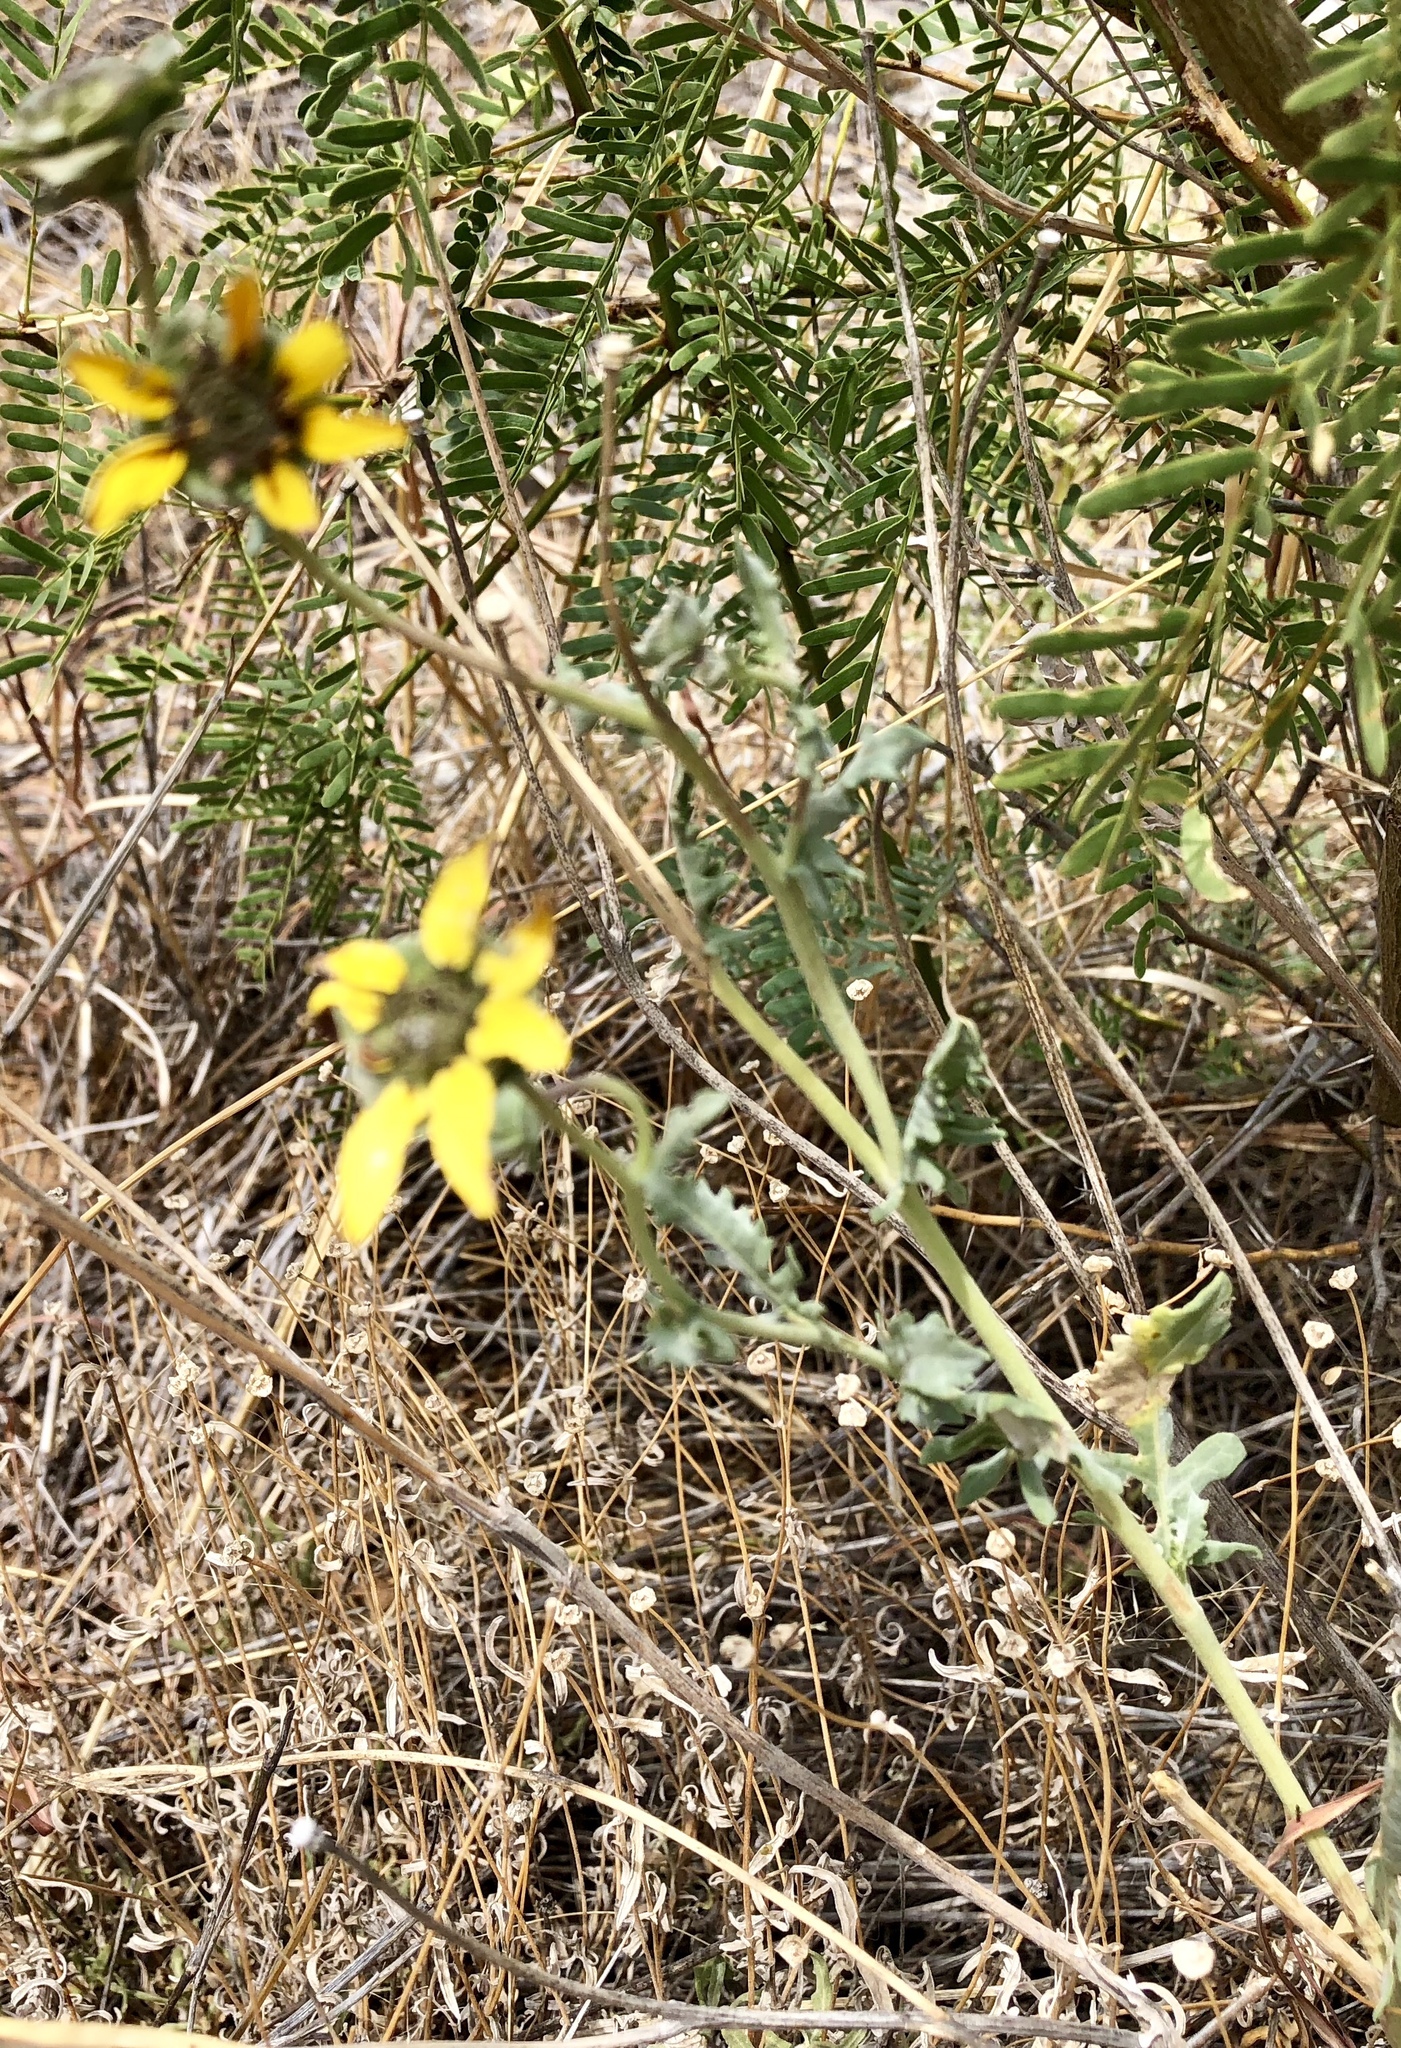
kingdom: Plantae
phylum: Tracheophyta
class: Magnoliopsida
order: Asterales
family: Asteraceae
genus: Berlandiera
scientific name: Berlandiera lyrata
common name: Chocolate-flower
